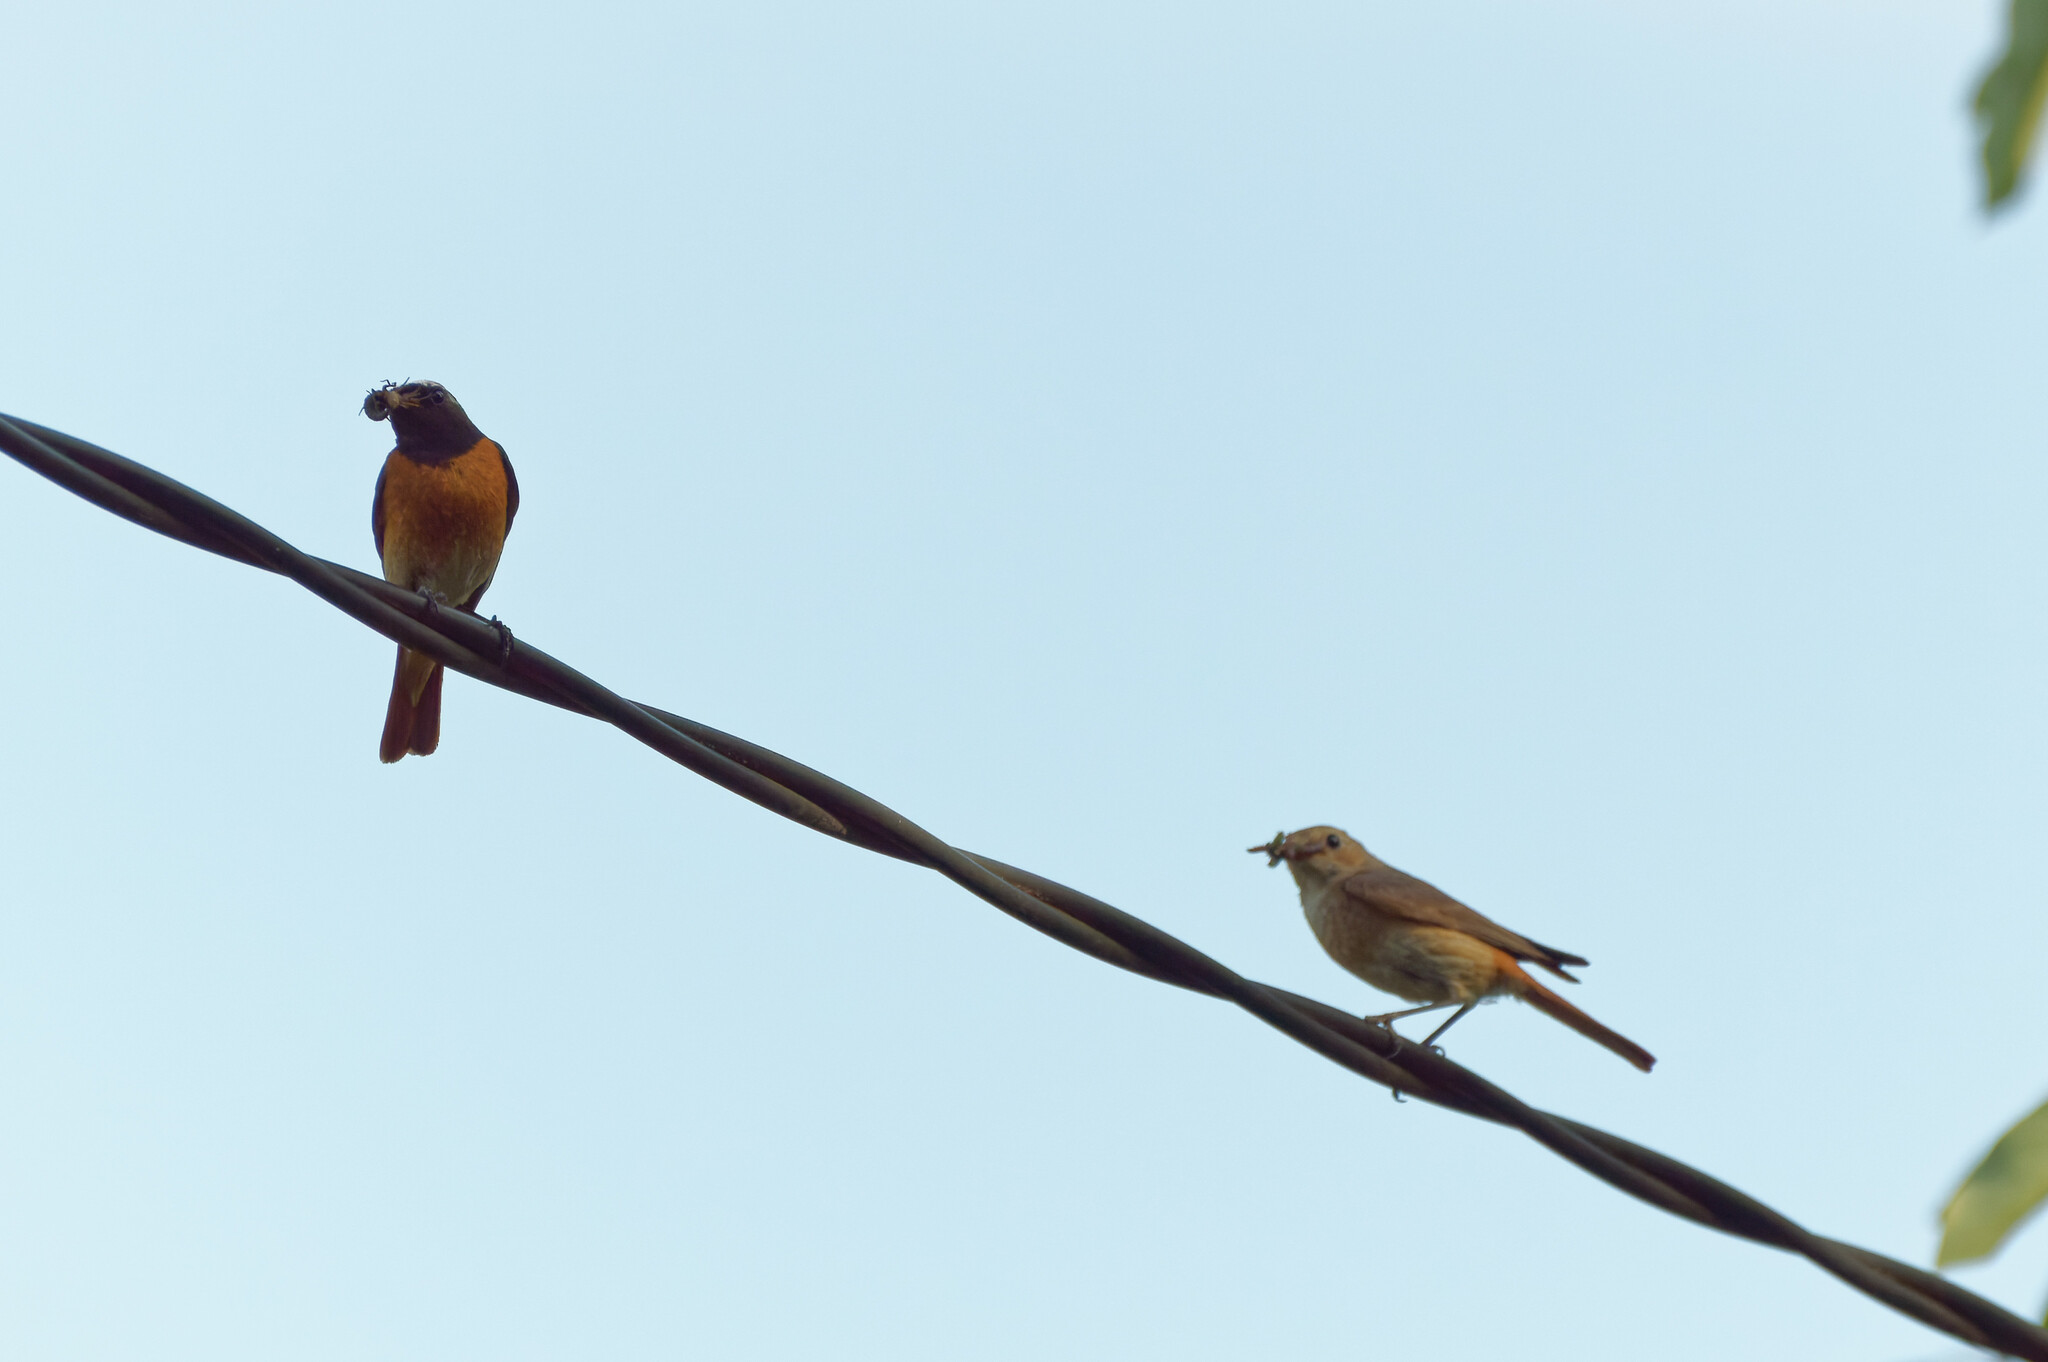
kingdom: Animalia
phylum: Chordata
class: Aves
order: Passeriformes
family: Muscicapidae
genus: Phoenicurus
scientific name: Phoenicurus phoenicurus
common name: Common redstart
